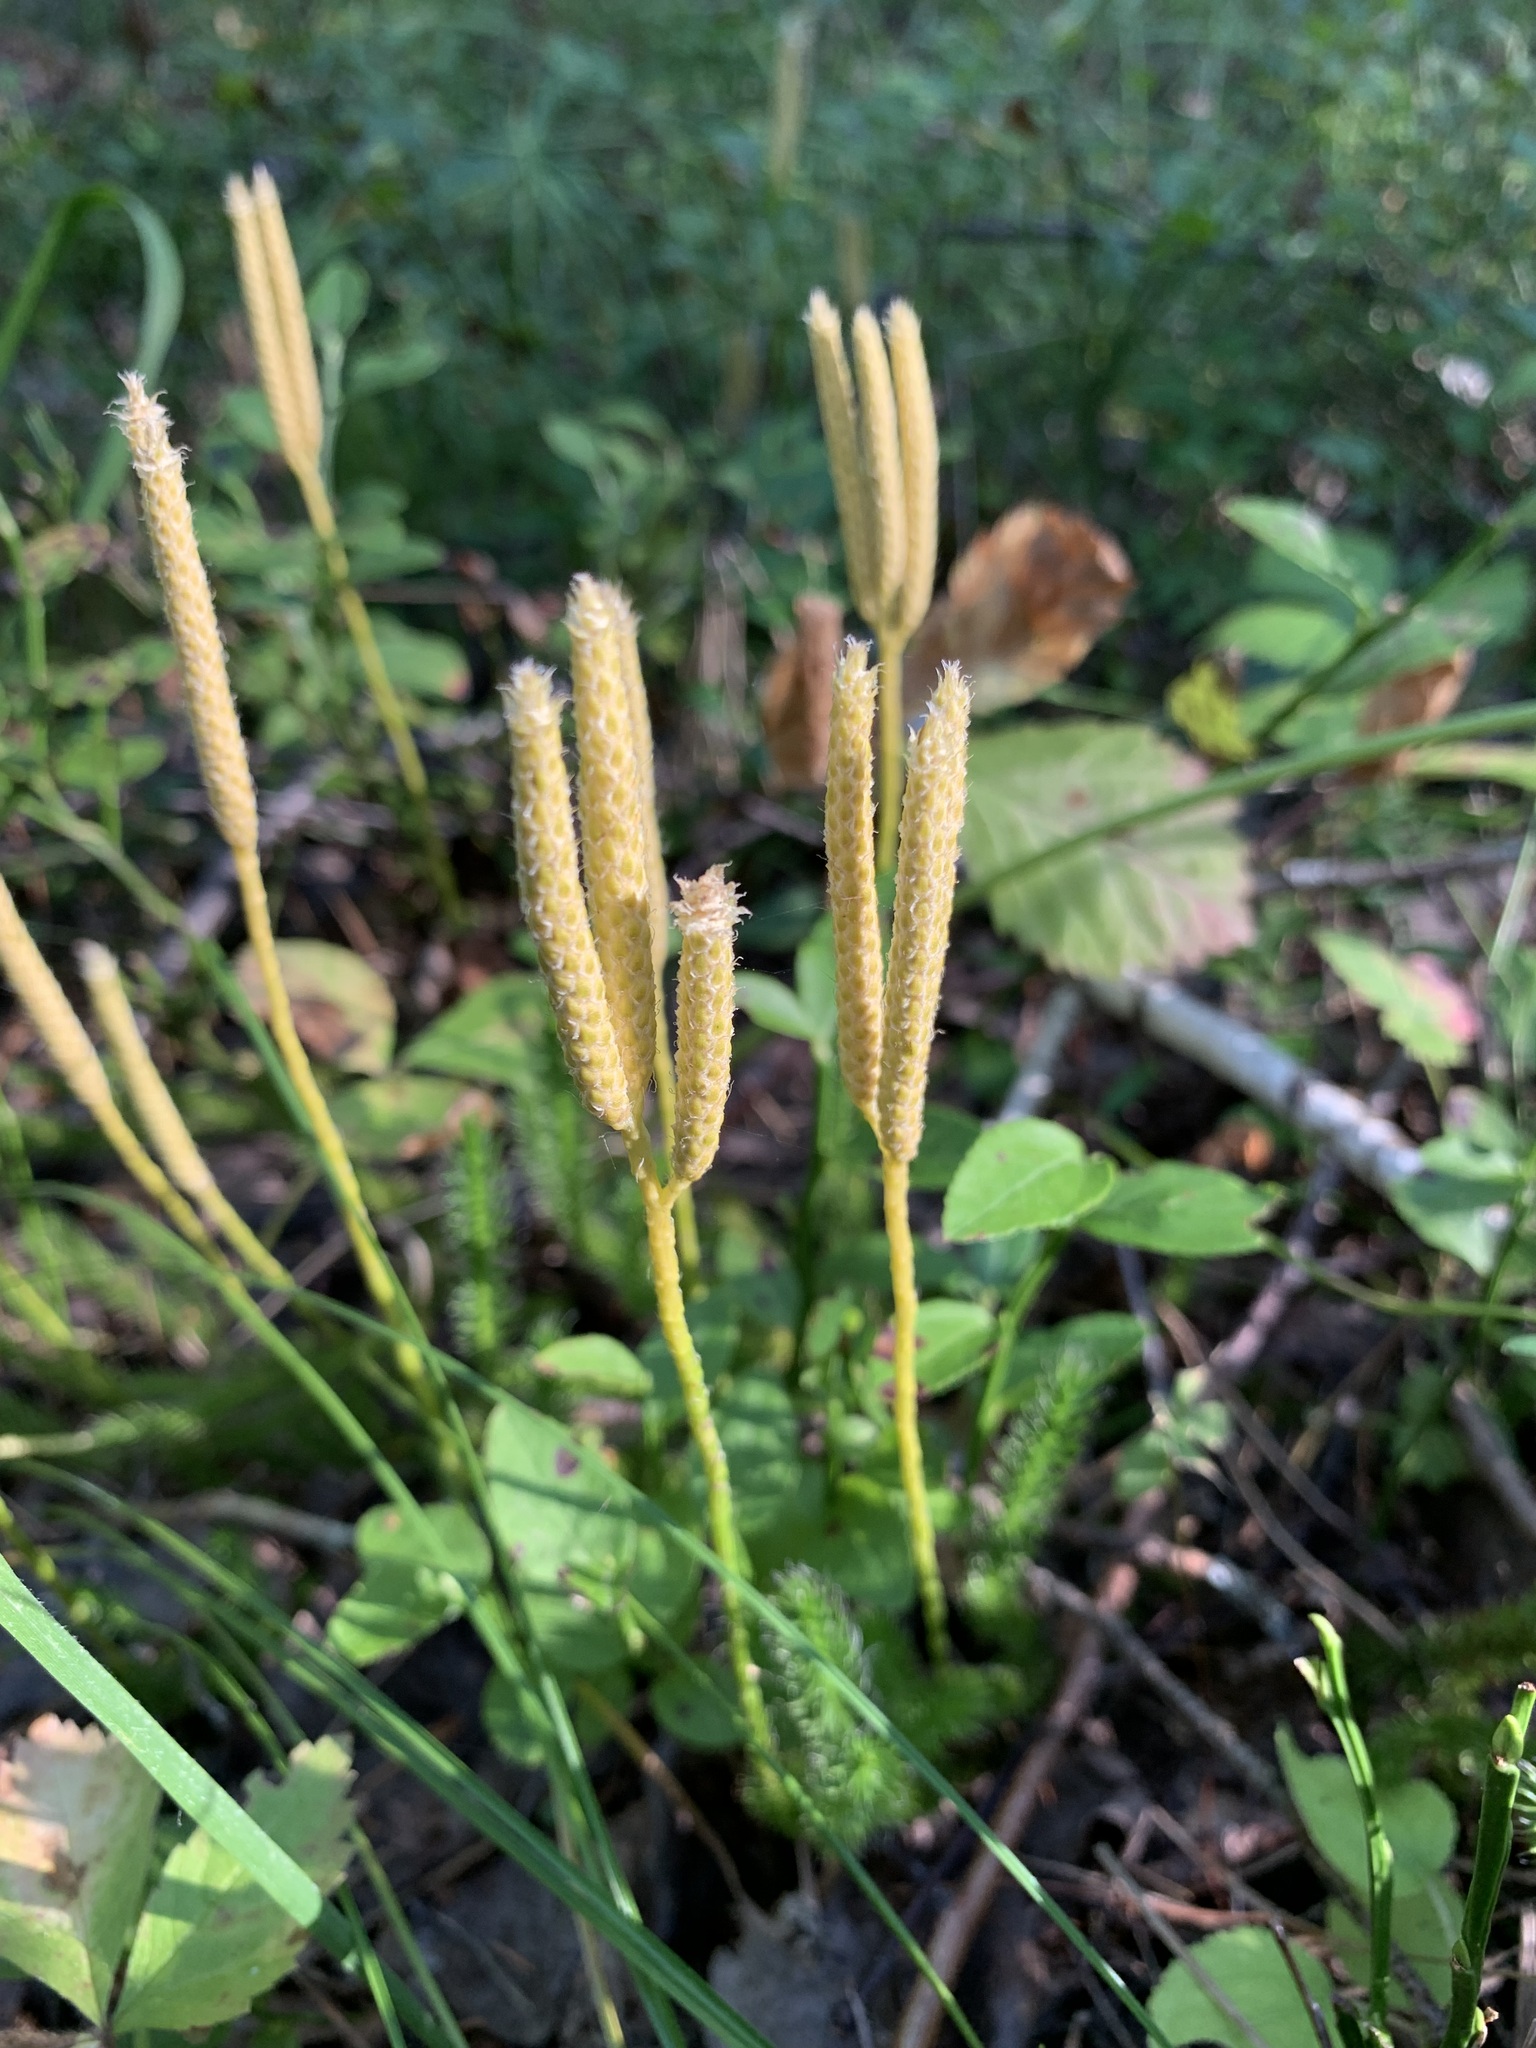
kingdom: Plantae
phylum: Tracheophyta
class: Lycopodiopsida
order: Lycopodiales
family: Lycopodiaceae
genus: Lycopodium
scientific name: Lycopodium clavatum
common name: Stag's-horn clubmoss
